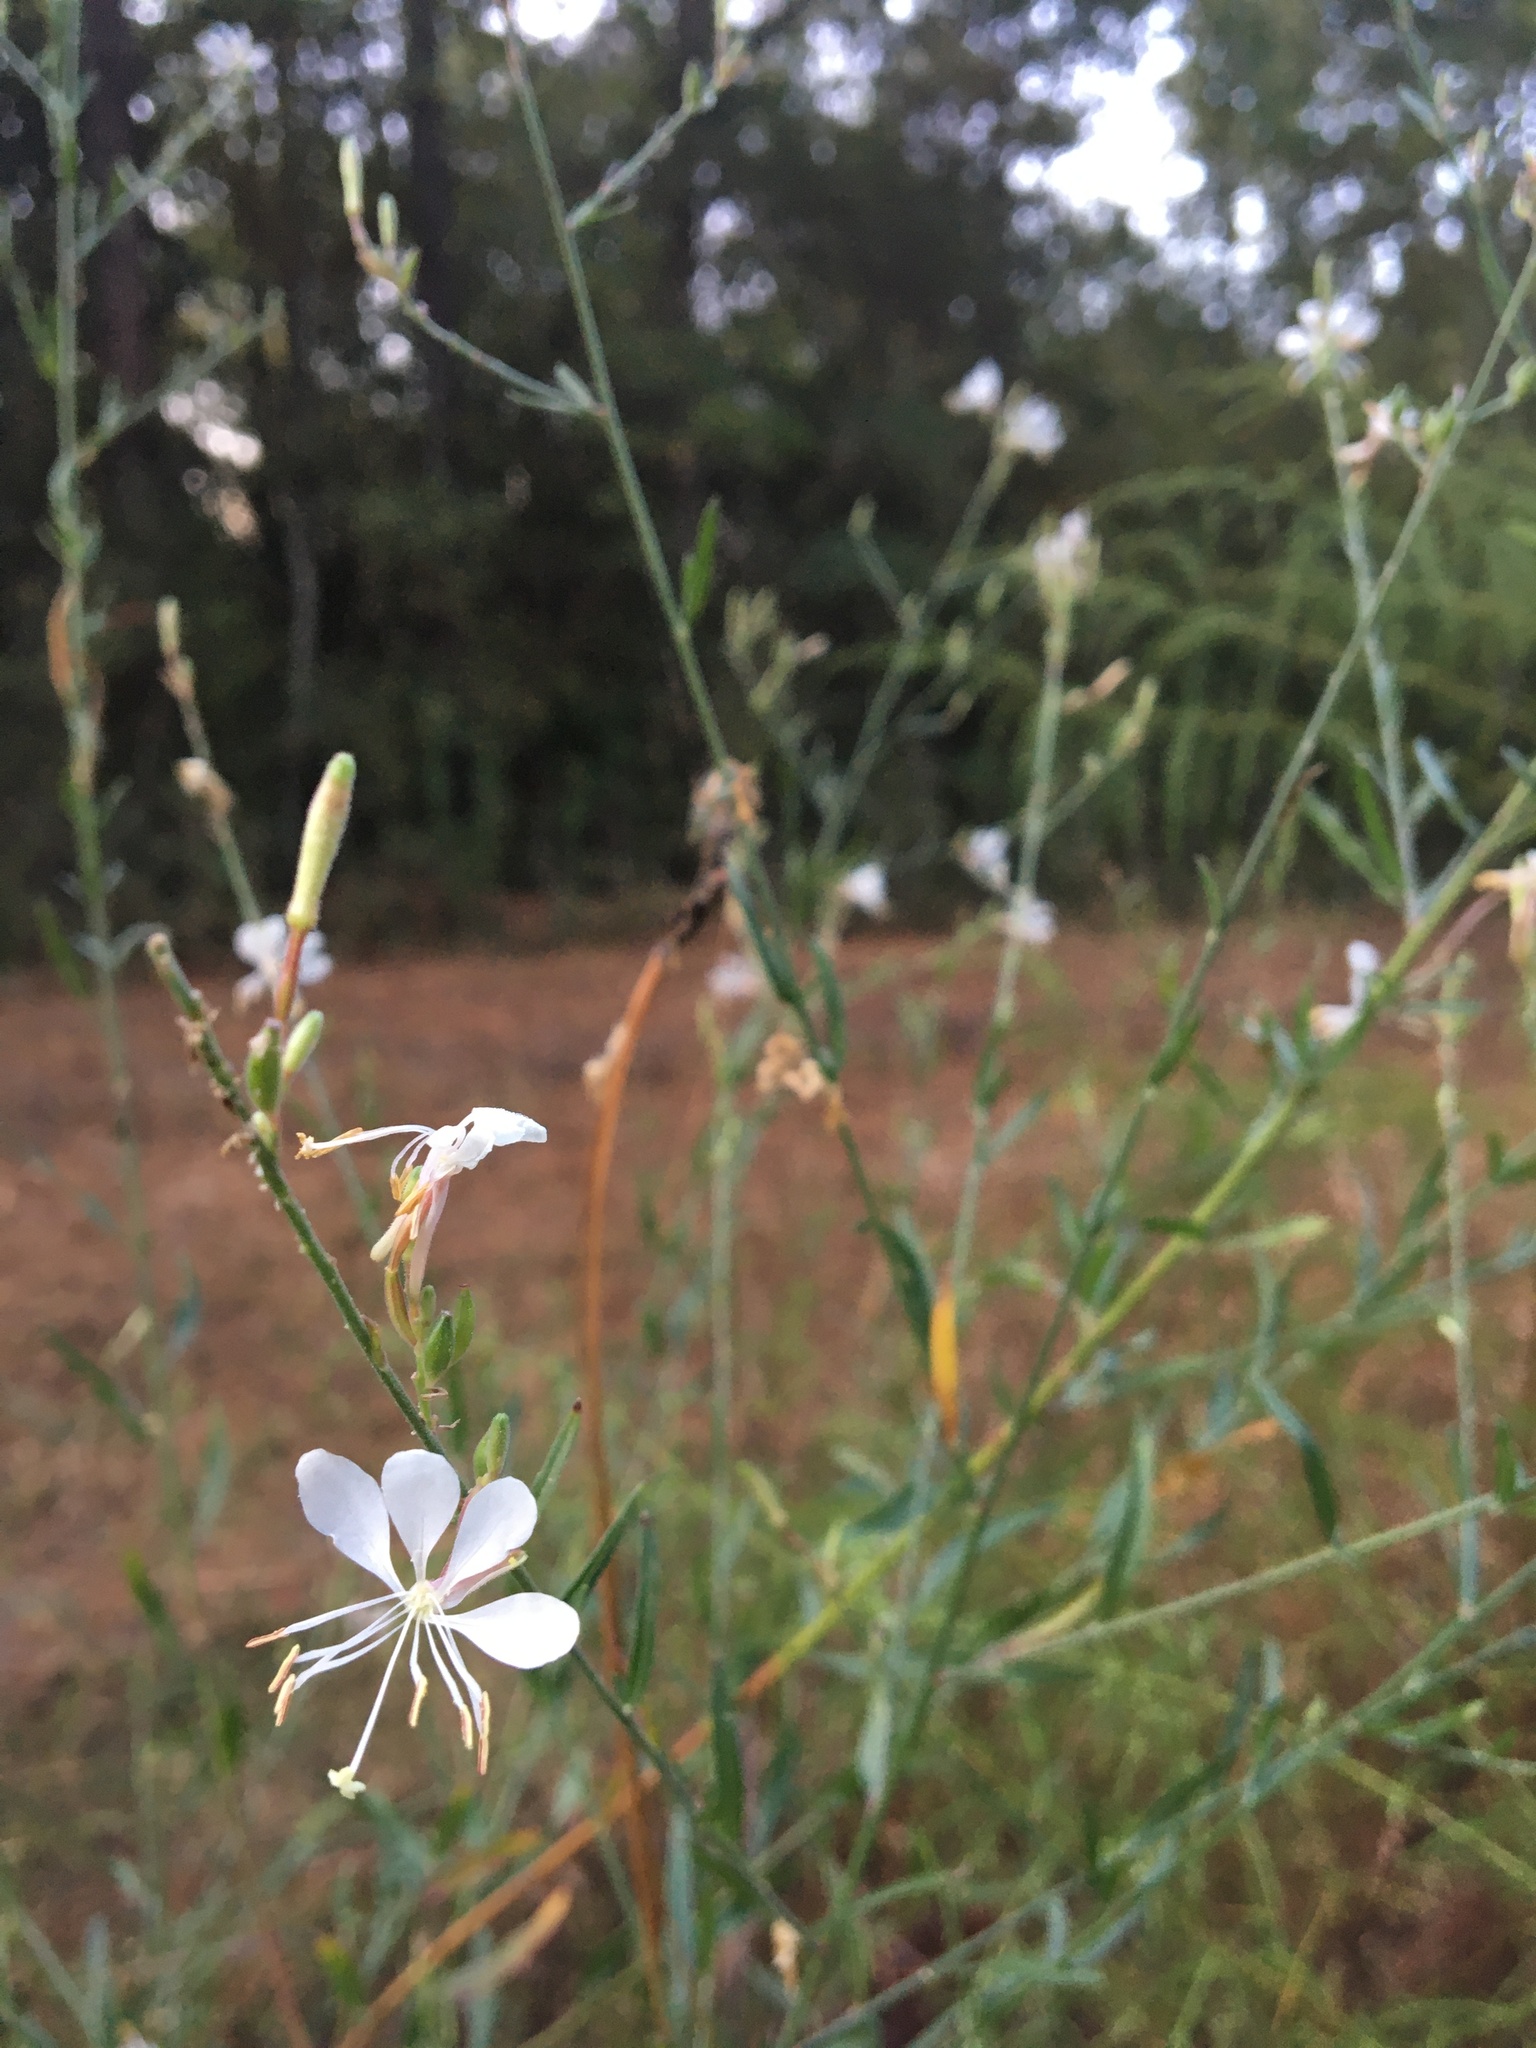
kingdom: Plantae
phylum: Tracheophyta
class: Magnoliopsida
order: Myrtales
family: Onagraceae
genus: Oenothera
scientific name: Oenothera filiformis
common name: Longflower beeblossom
